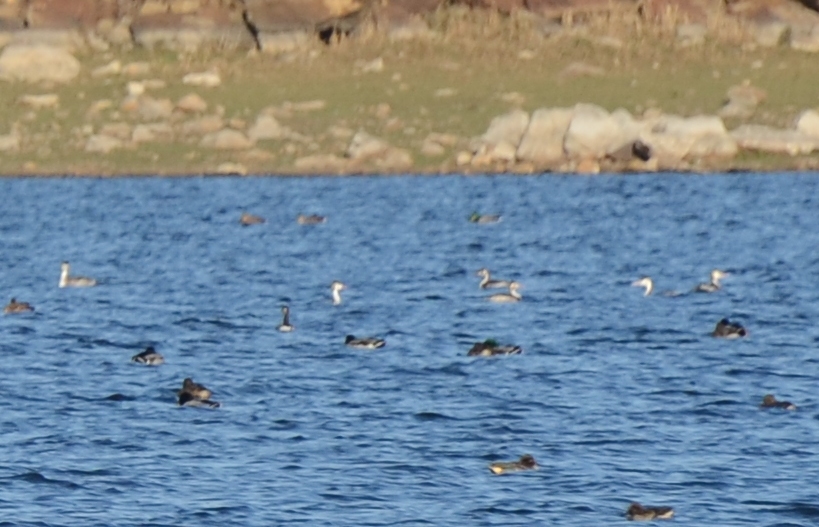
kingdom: Animalia
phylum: Chordata
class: Aves
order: Podicipediformes
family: Podicipedidae
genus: Podiceps
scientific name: Podiceps cristatus
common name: Great crested grebe
